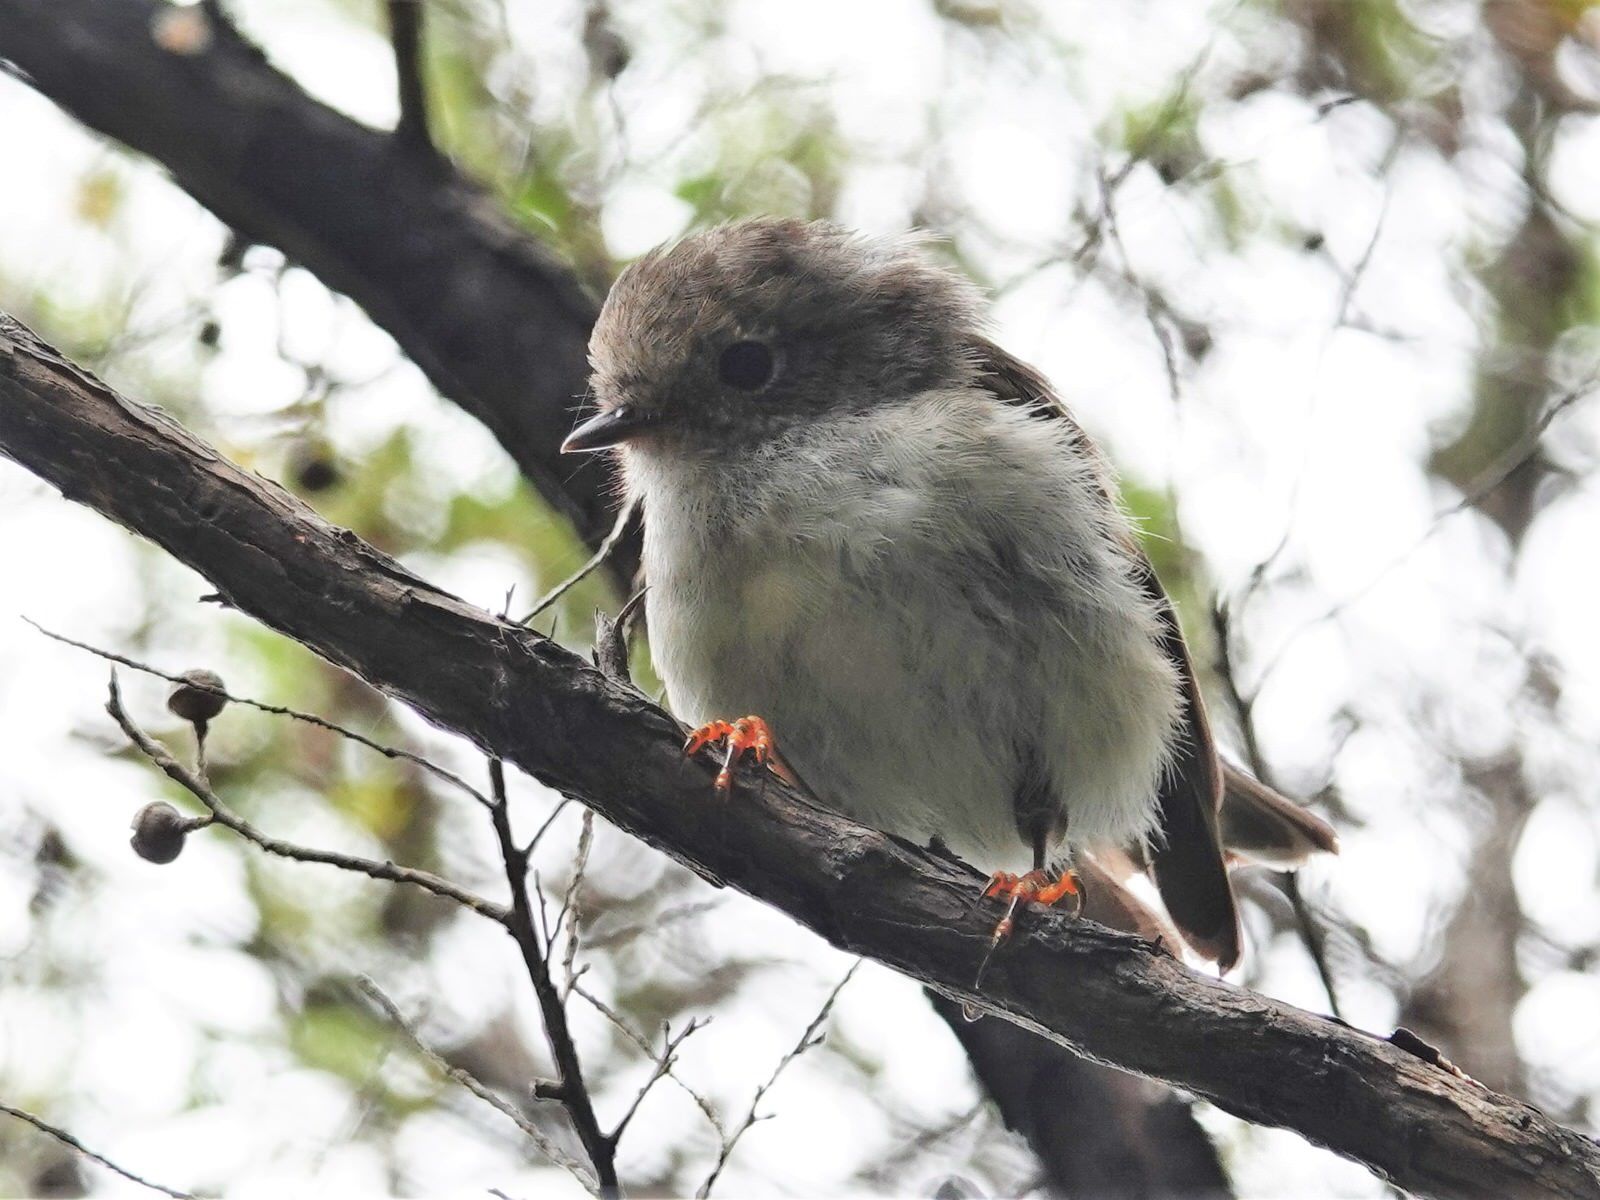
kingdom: Animalia
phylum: Chordata
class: Aves
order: Passeriformes
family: Petroicidae
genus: Petroica
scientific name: Petroica macrocephala
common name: Tomtit
